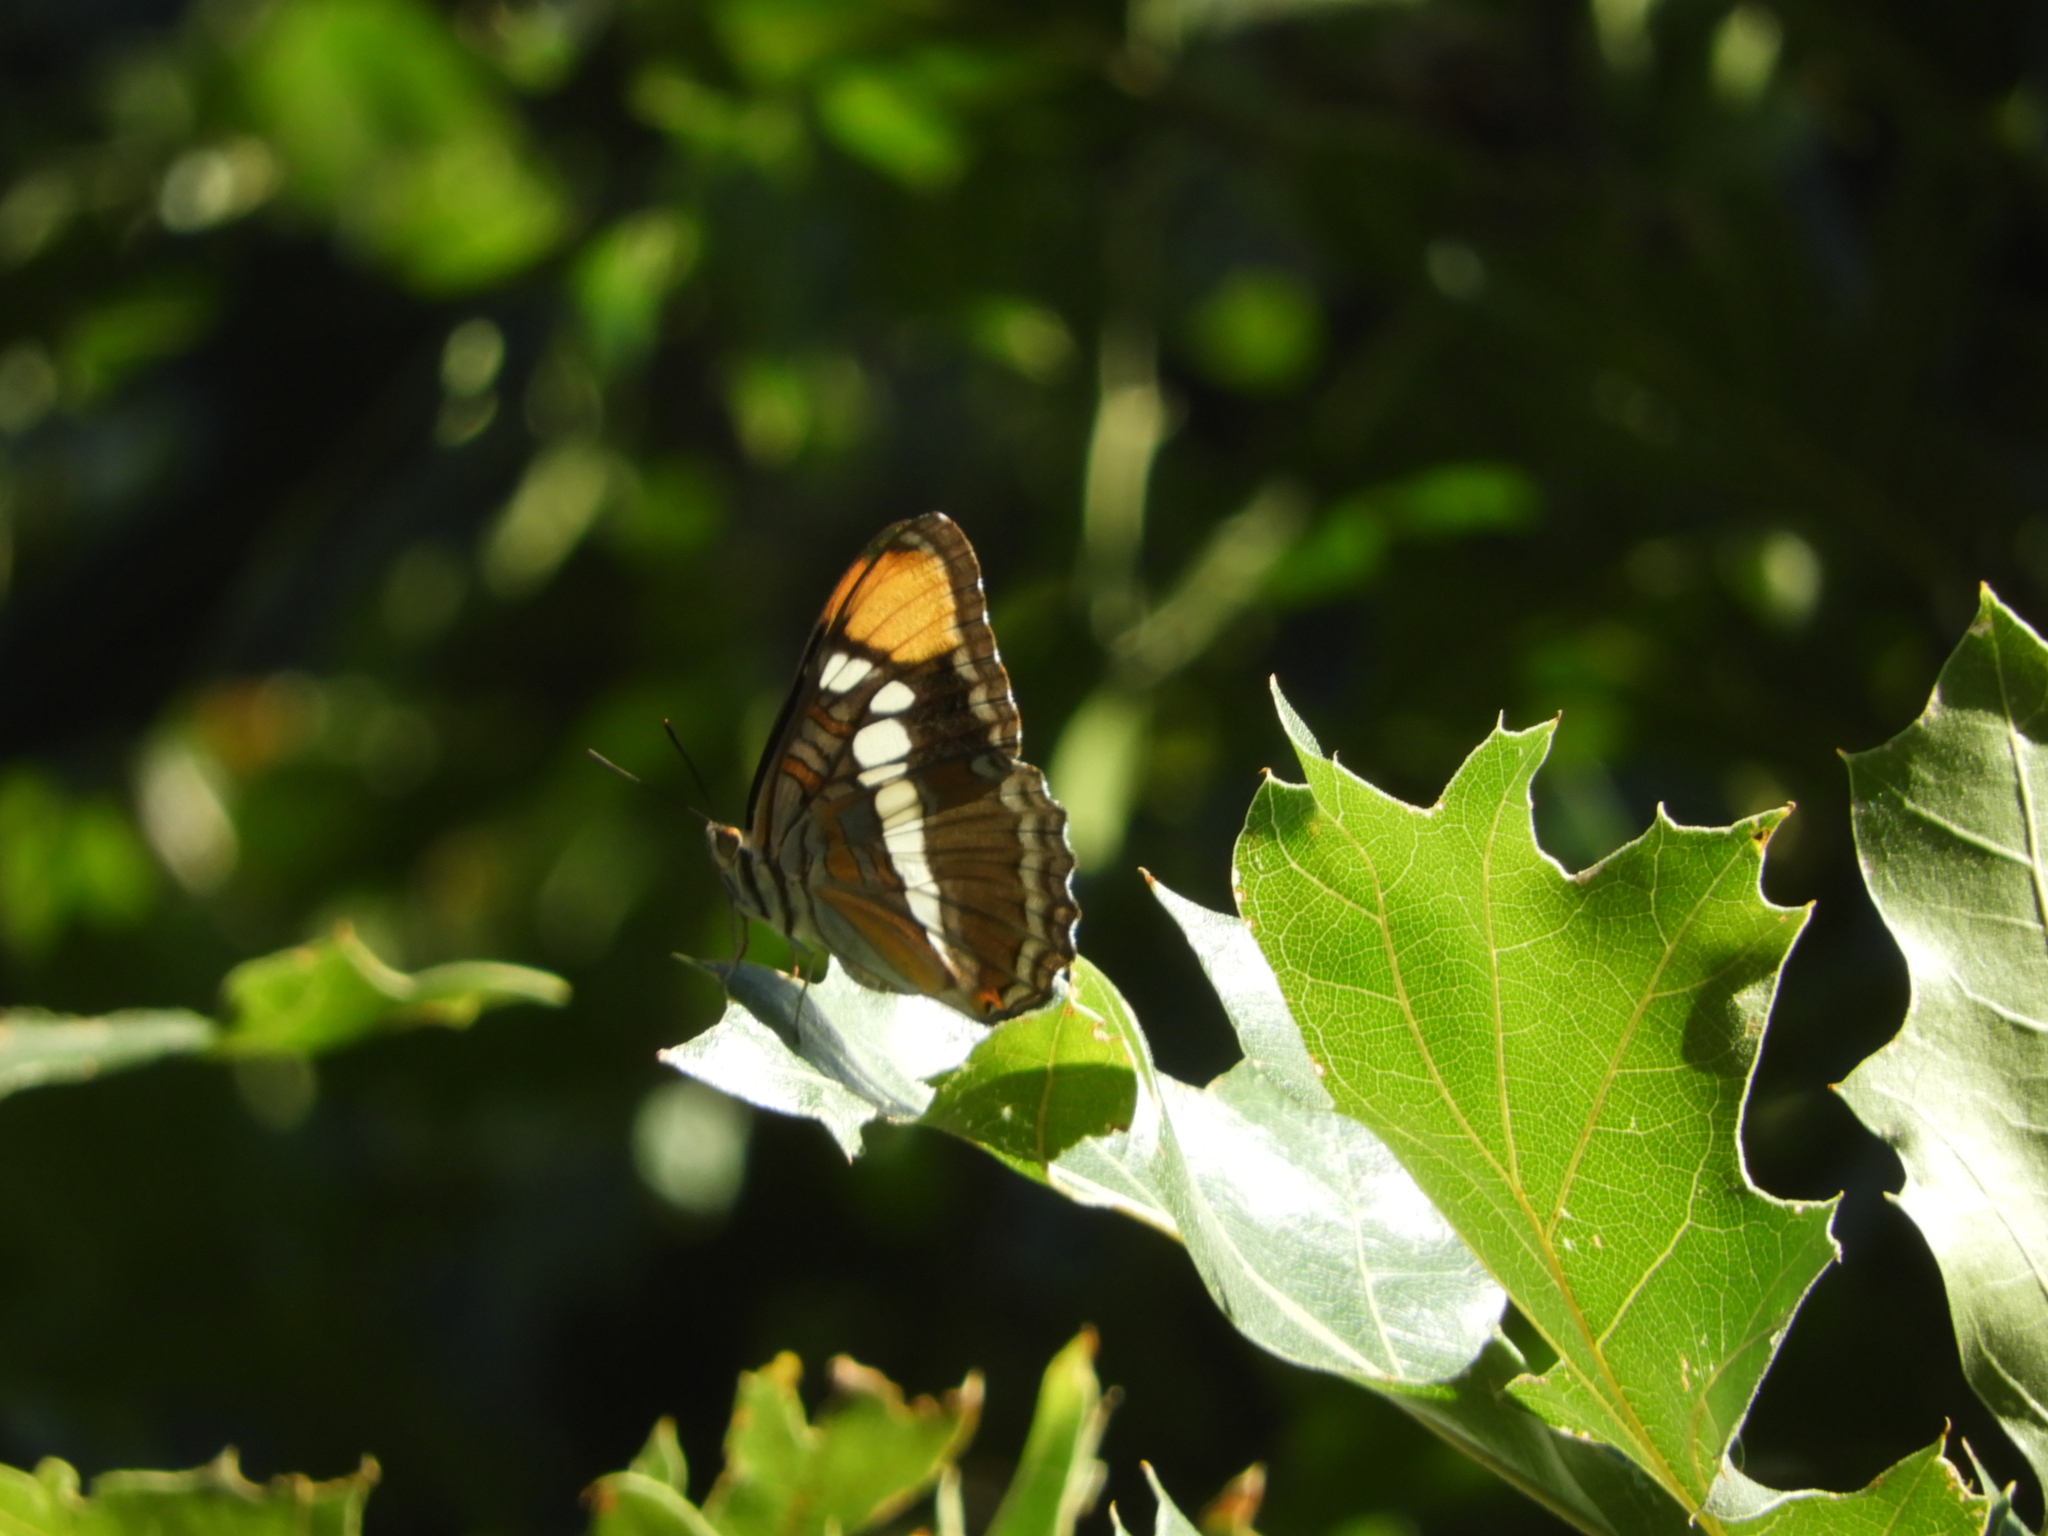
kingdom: Animalia
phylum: Arthropoda
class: Insecta
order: Lepidoptera
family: Nymphalidae
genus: Limenitis
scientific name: Limenitis bredowii
